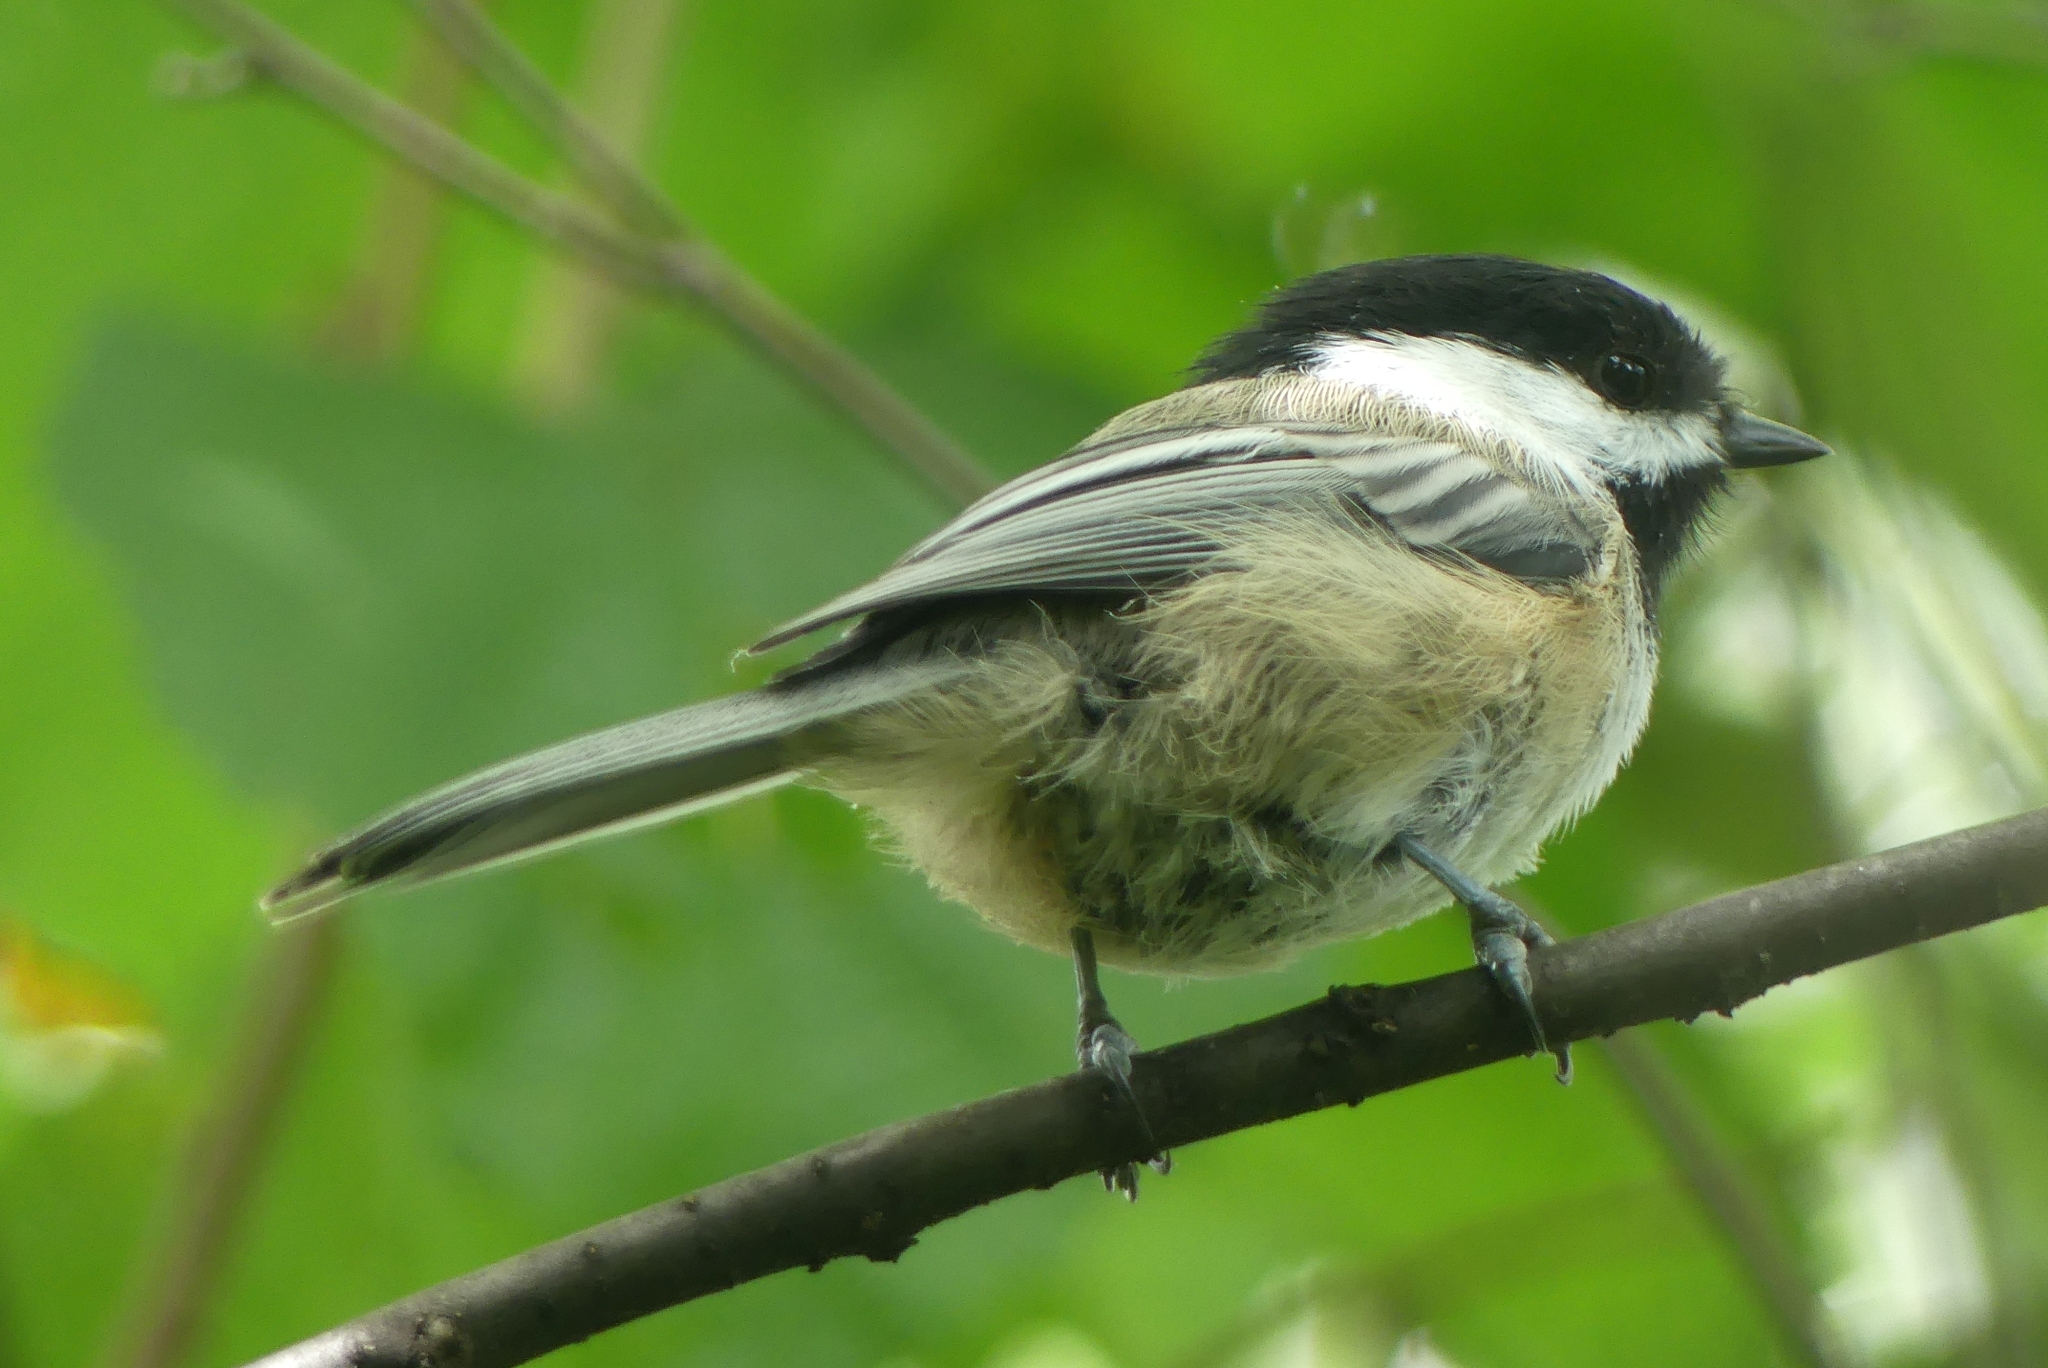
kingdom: Animalia
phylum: Chordata
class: Aves
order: Passeriformes
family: Paridae
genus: Poecile
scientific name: Poecile atricapillus
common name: Black-capped chickadee
